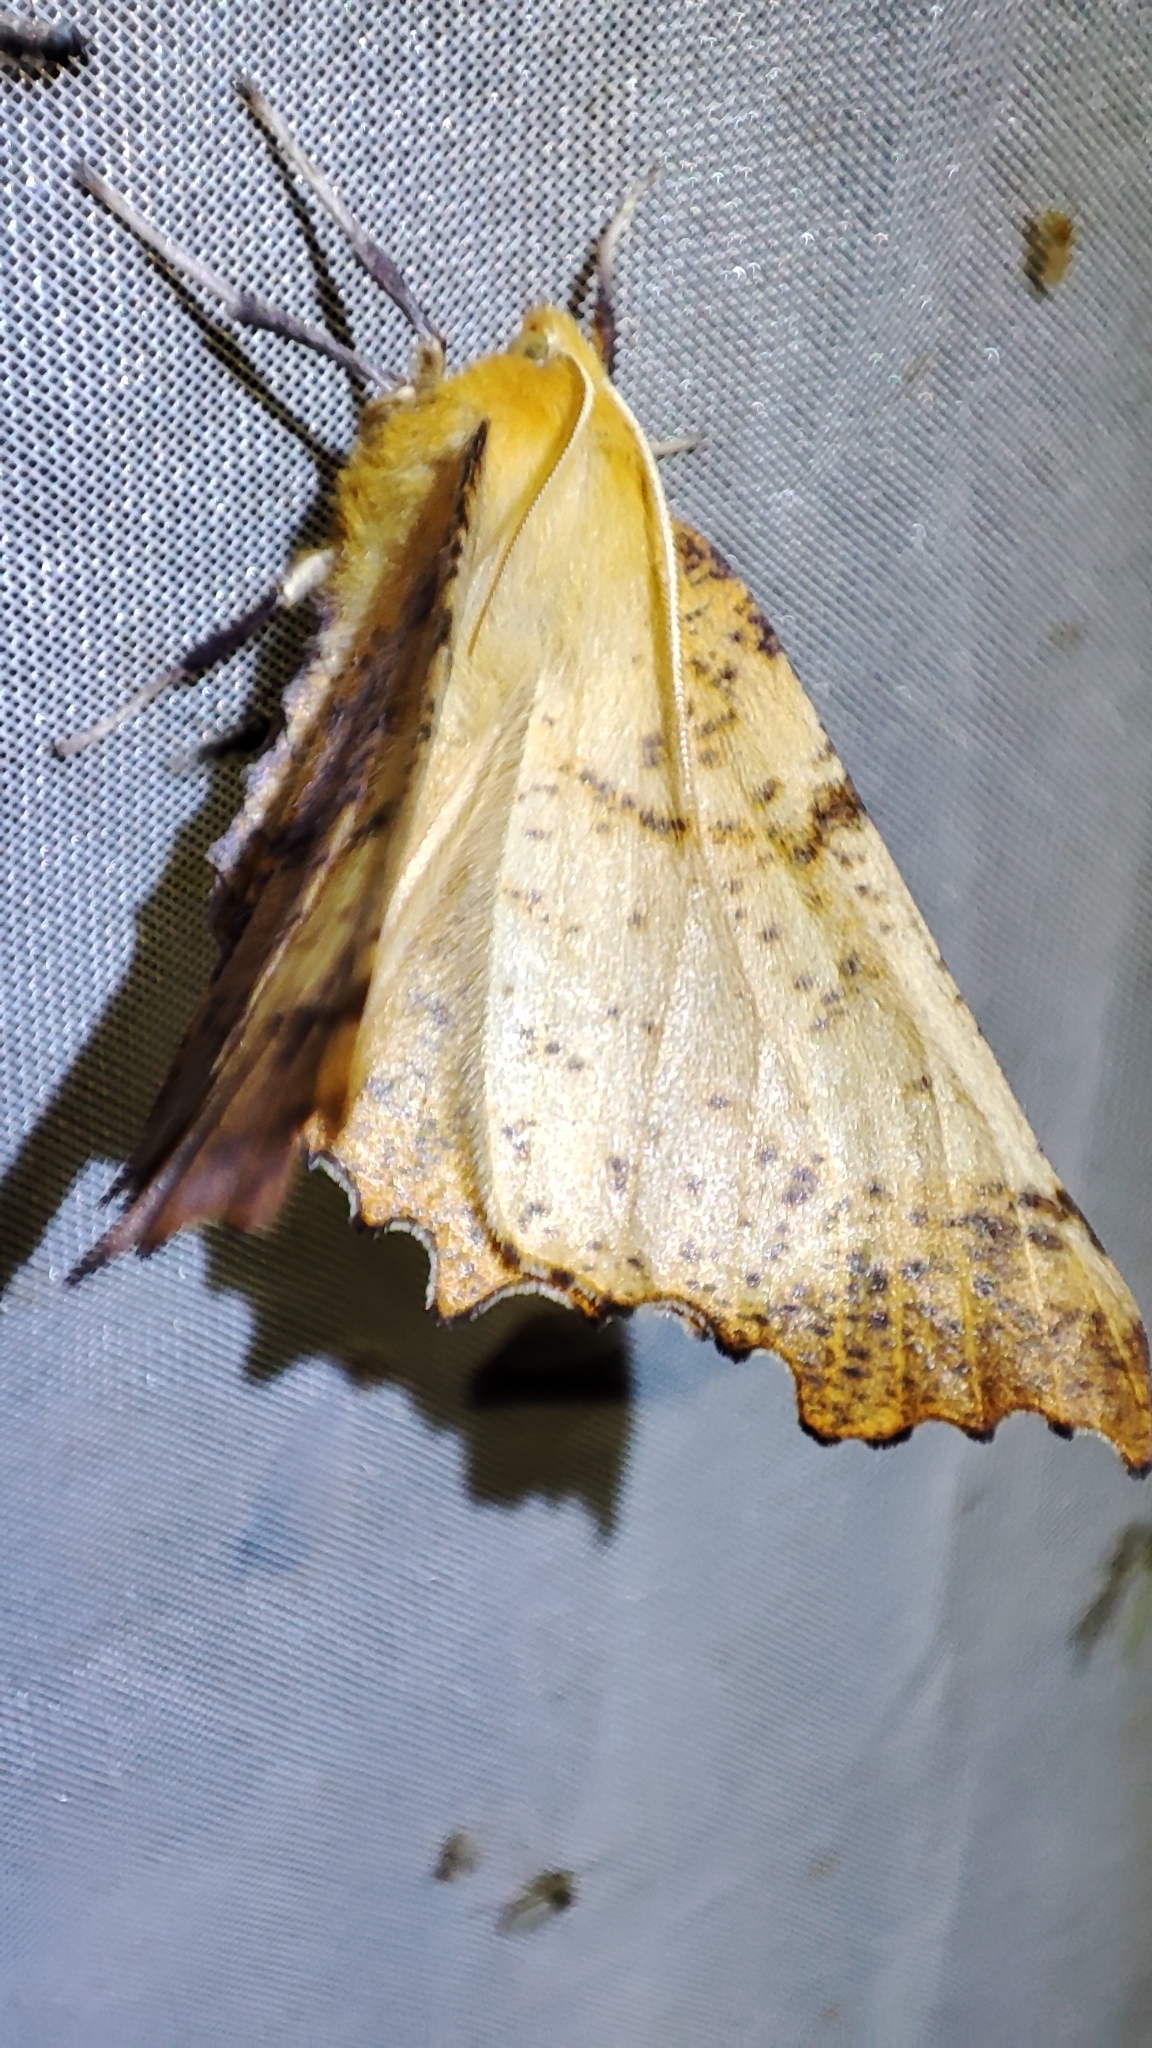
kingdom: Animalia
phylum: Arthropoda
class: Insecta
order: Lepidoptera
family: Geometridae
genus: Ennomos
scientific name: Ennomos autumnaria
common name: Large thorn
